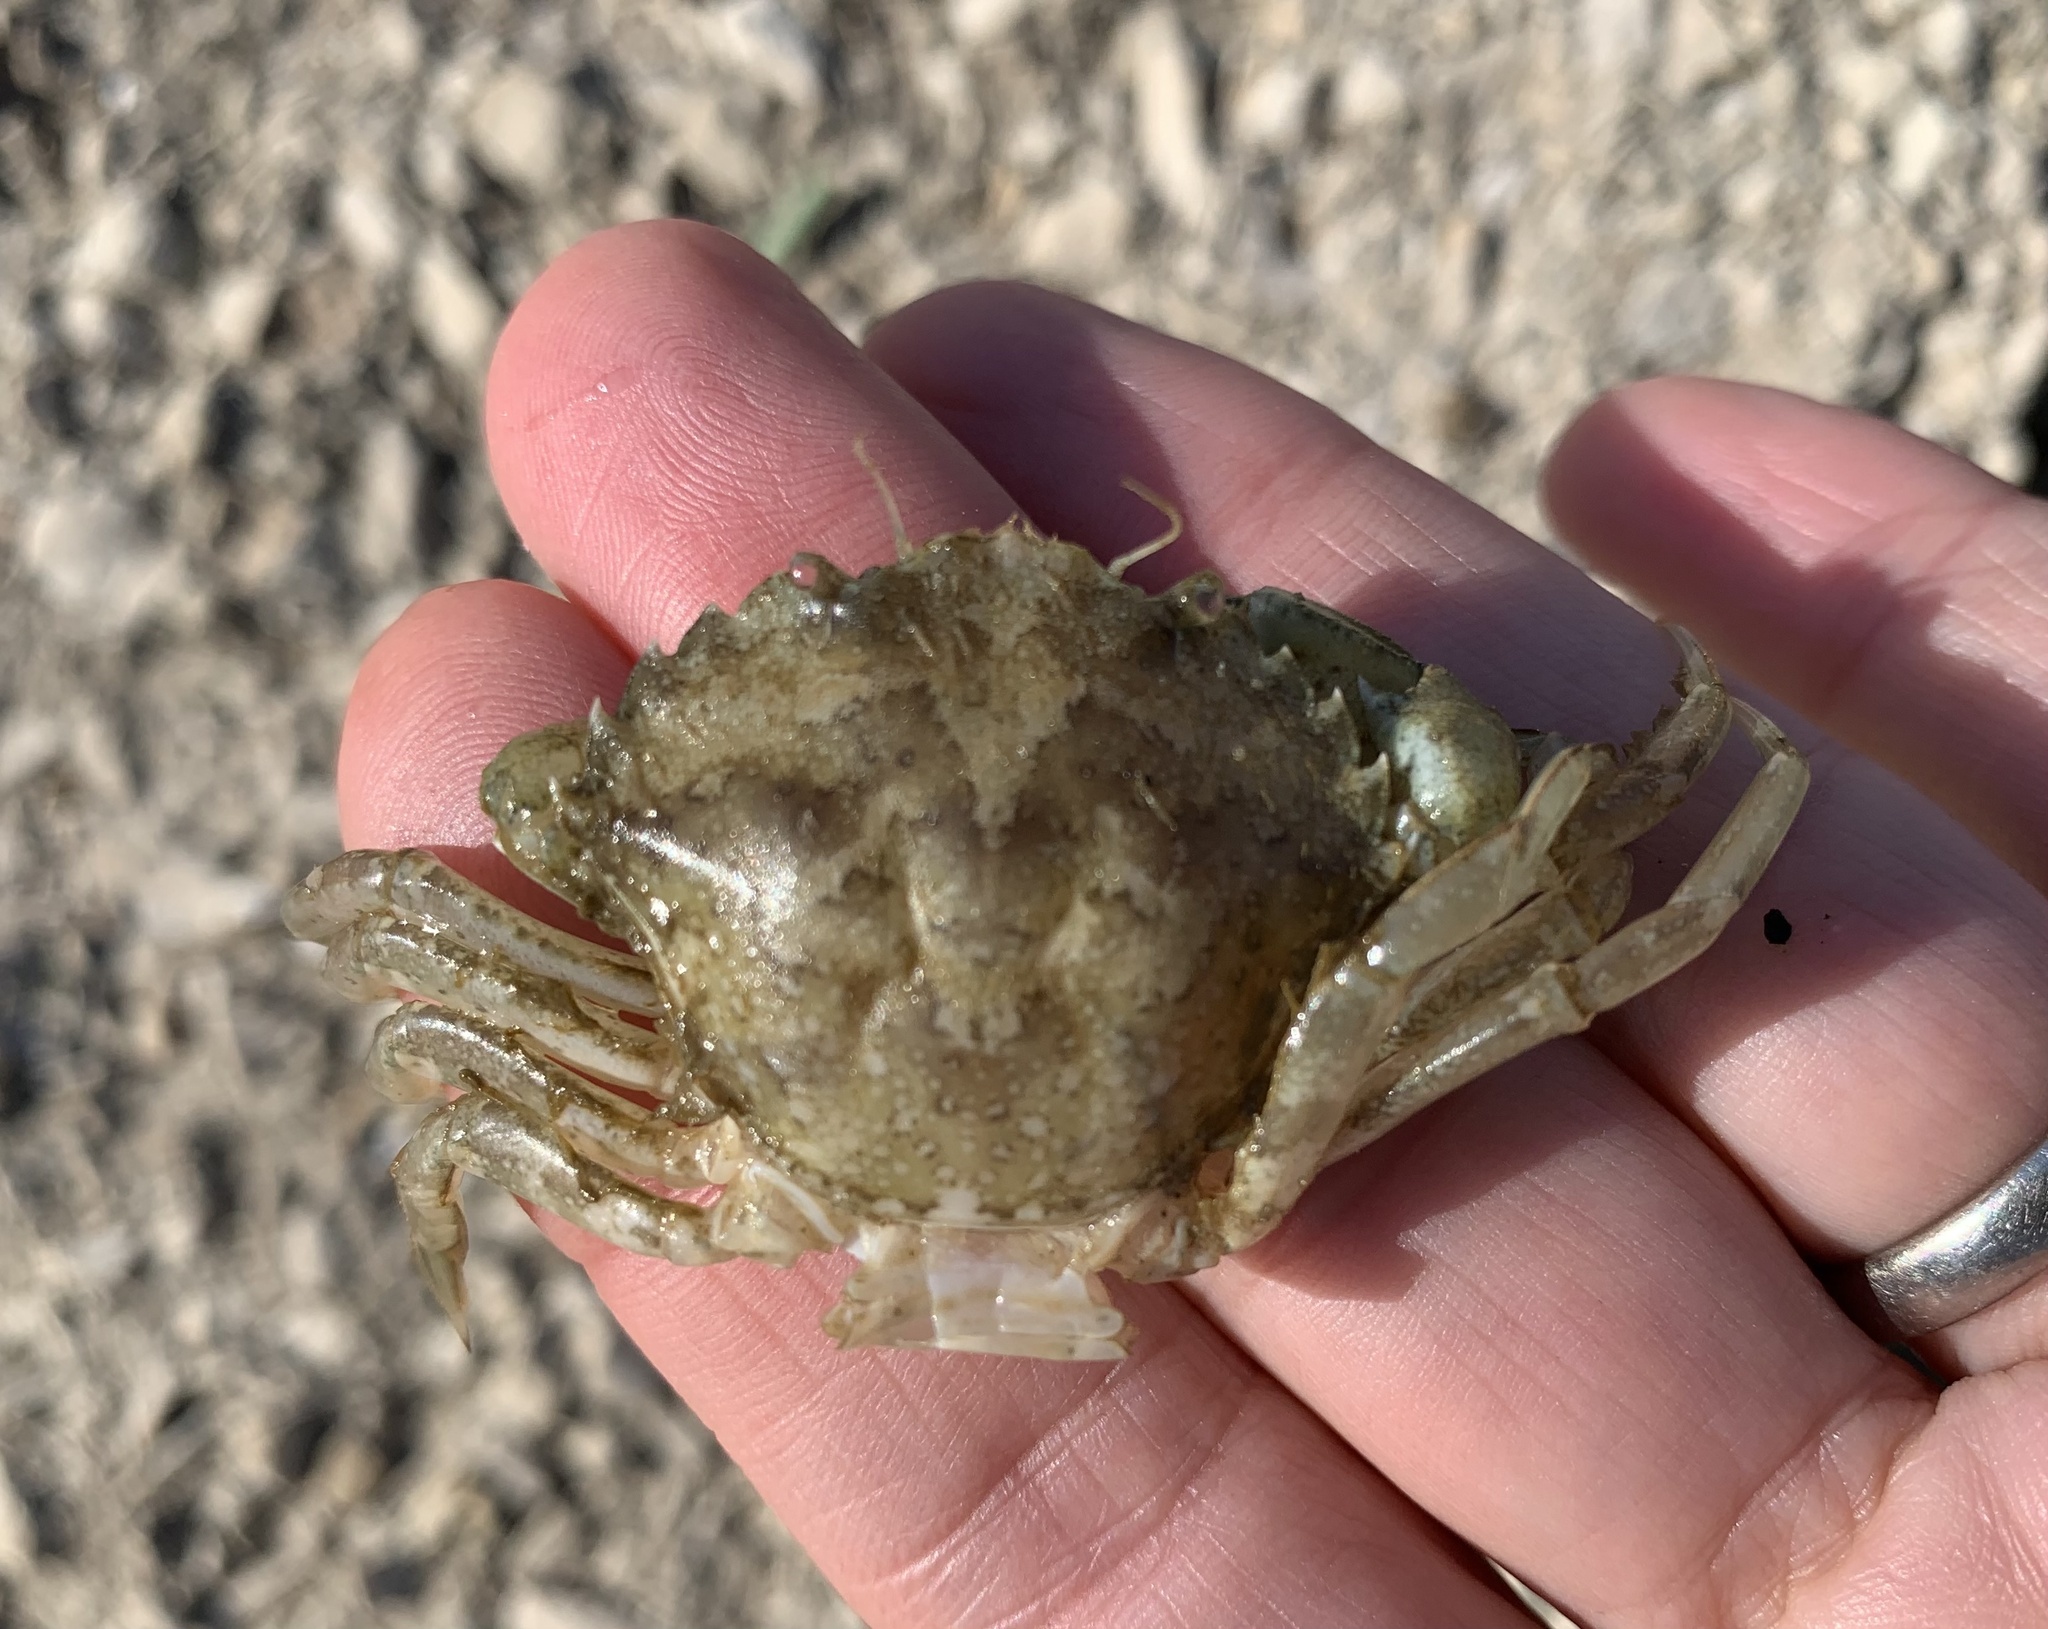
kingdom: Animalia
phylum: Arthropoda
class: Malacostraca
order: Decapoda
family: Carcinidae
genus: Carcinus
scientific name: Carcinus aestuarii
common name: Mediterranean green crab
